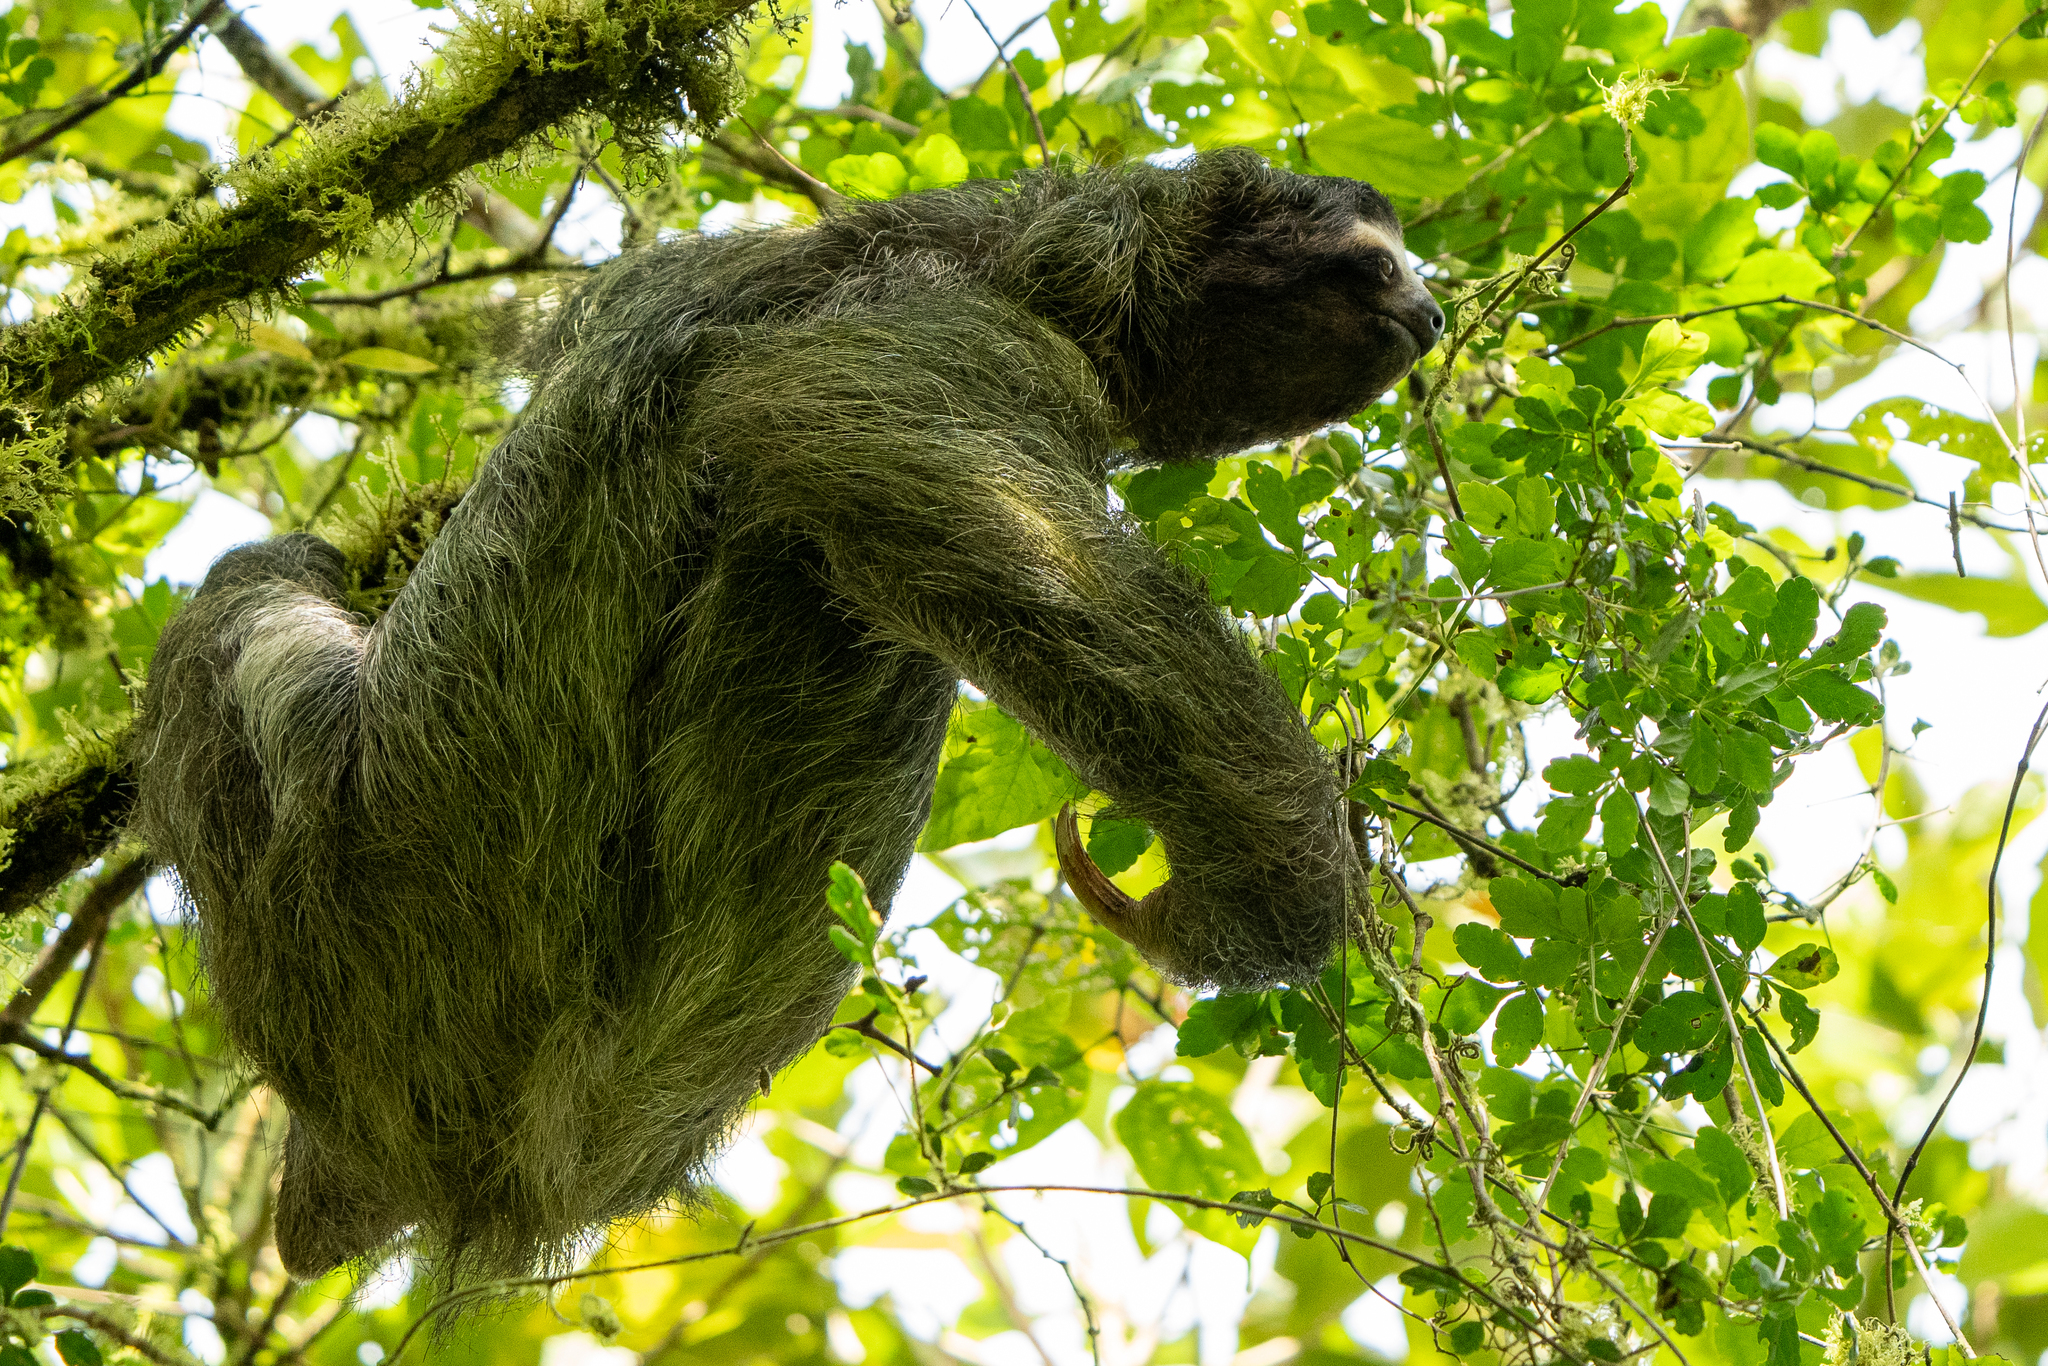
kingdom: Animalia
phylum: Chordata
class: Mammalia
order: Pilosa
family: Bradypodidae
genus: Bradypus
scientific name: Bradypus variegatus
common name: Brown-throated three-toed sloth
